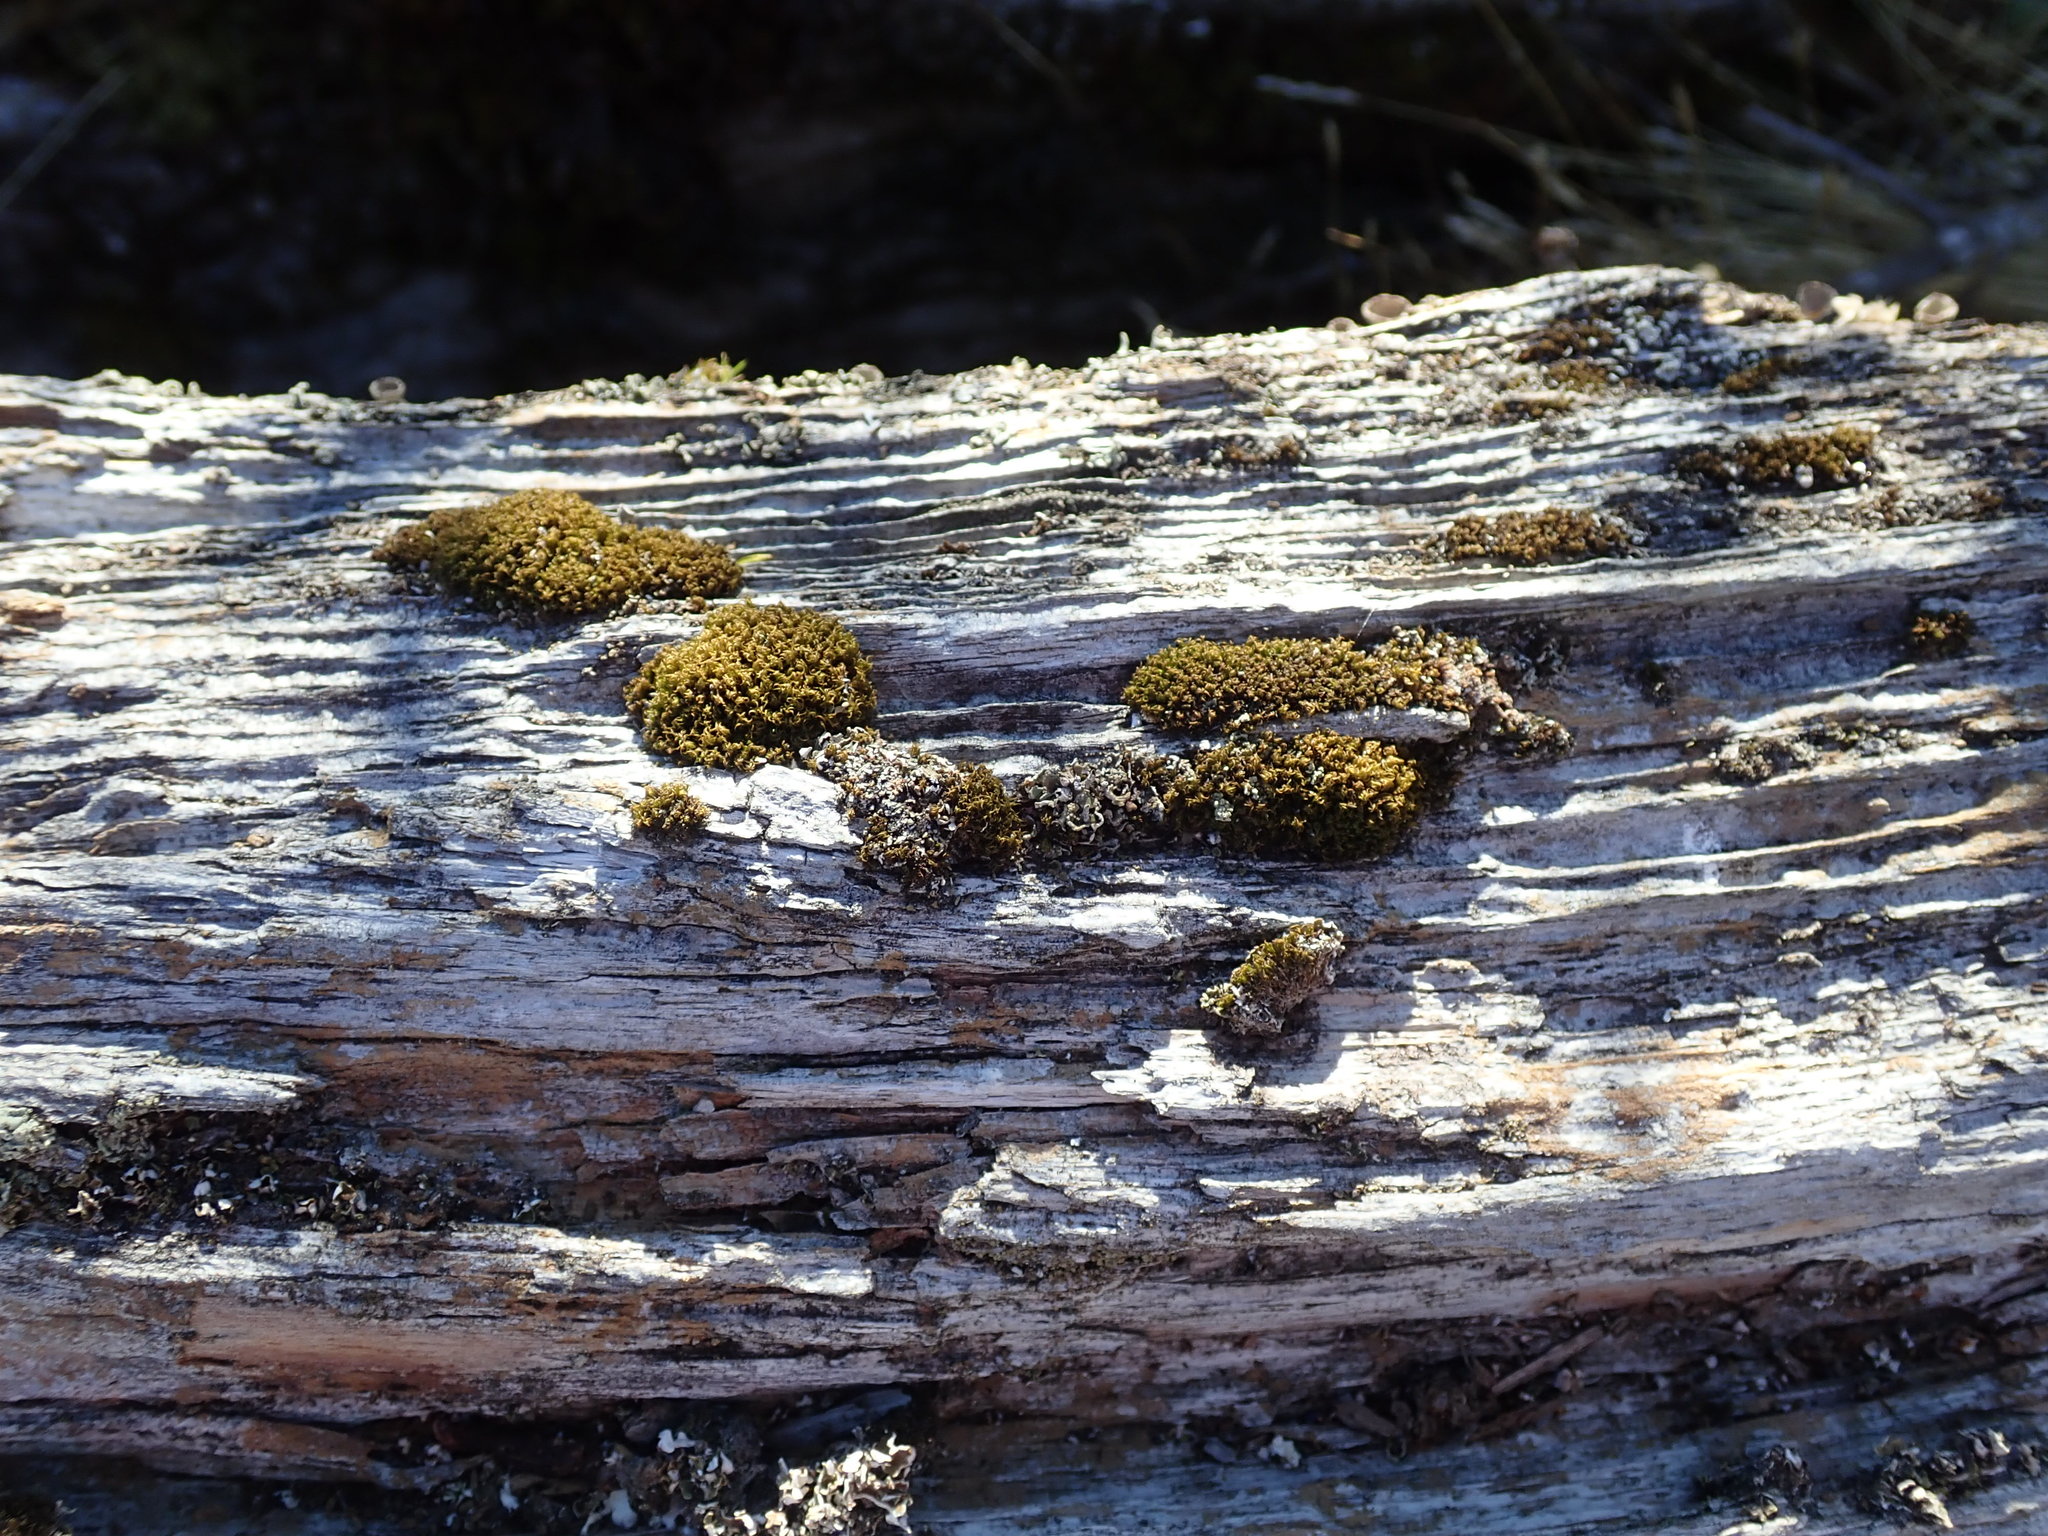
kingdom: Plantae
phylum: Bryophyta
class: Bryopsida
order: Dicranales
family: Rhabdoweisiaceae
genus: Dicranoweisia
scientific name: Dicranoweisia cirrata
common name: Common pincushion
